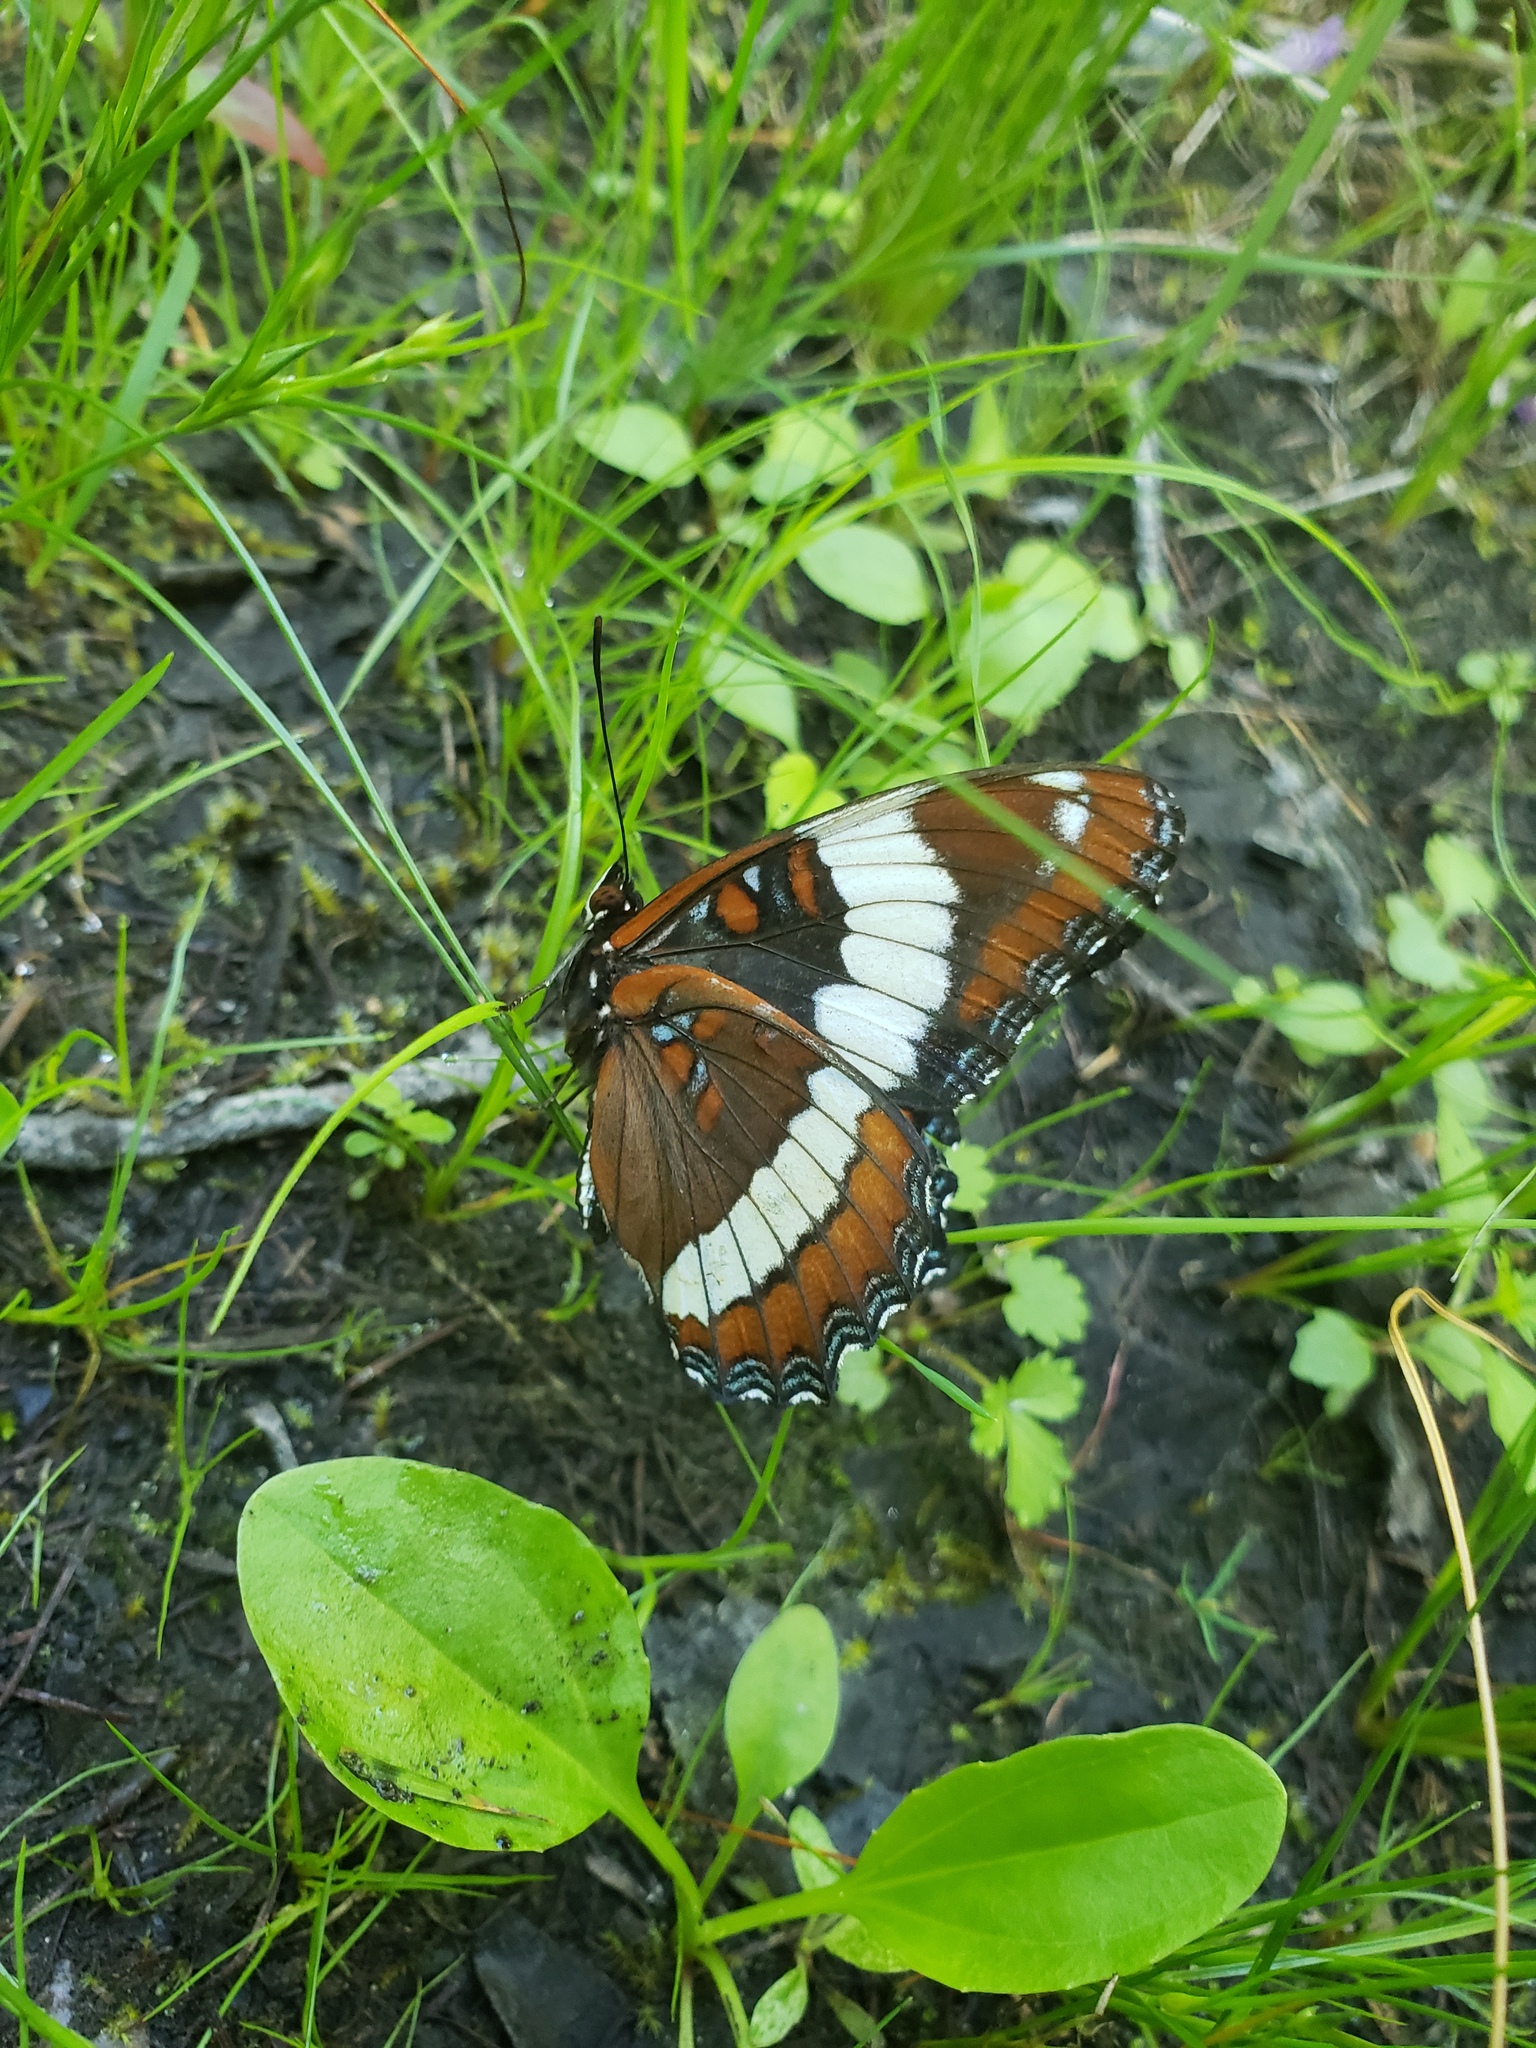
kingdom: Animalia
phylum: Arthropoda
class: Insecta
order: Lepidoptera
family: Nymphalidae
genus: Limenitis
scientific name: Limenitis arthemis
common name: Red-spotted admiral
